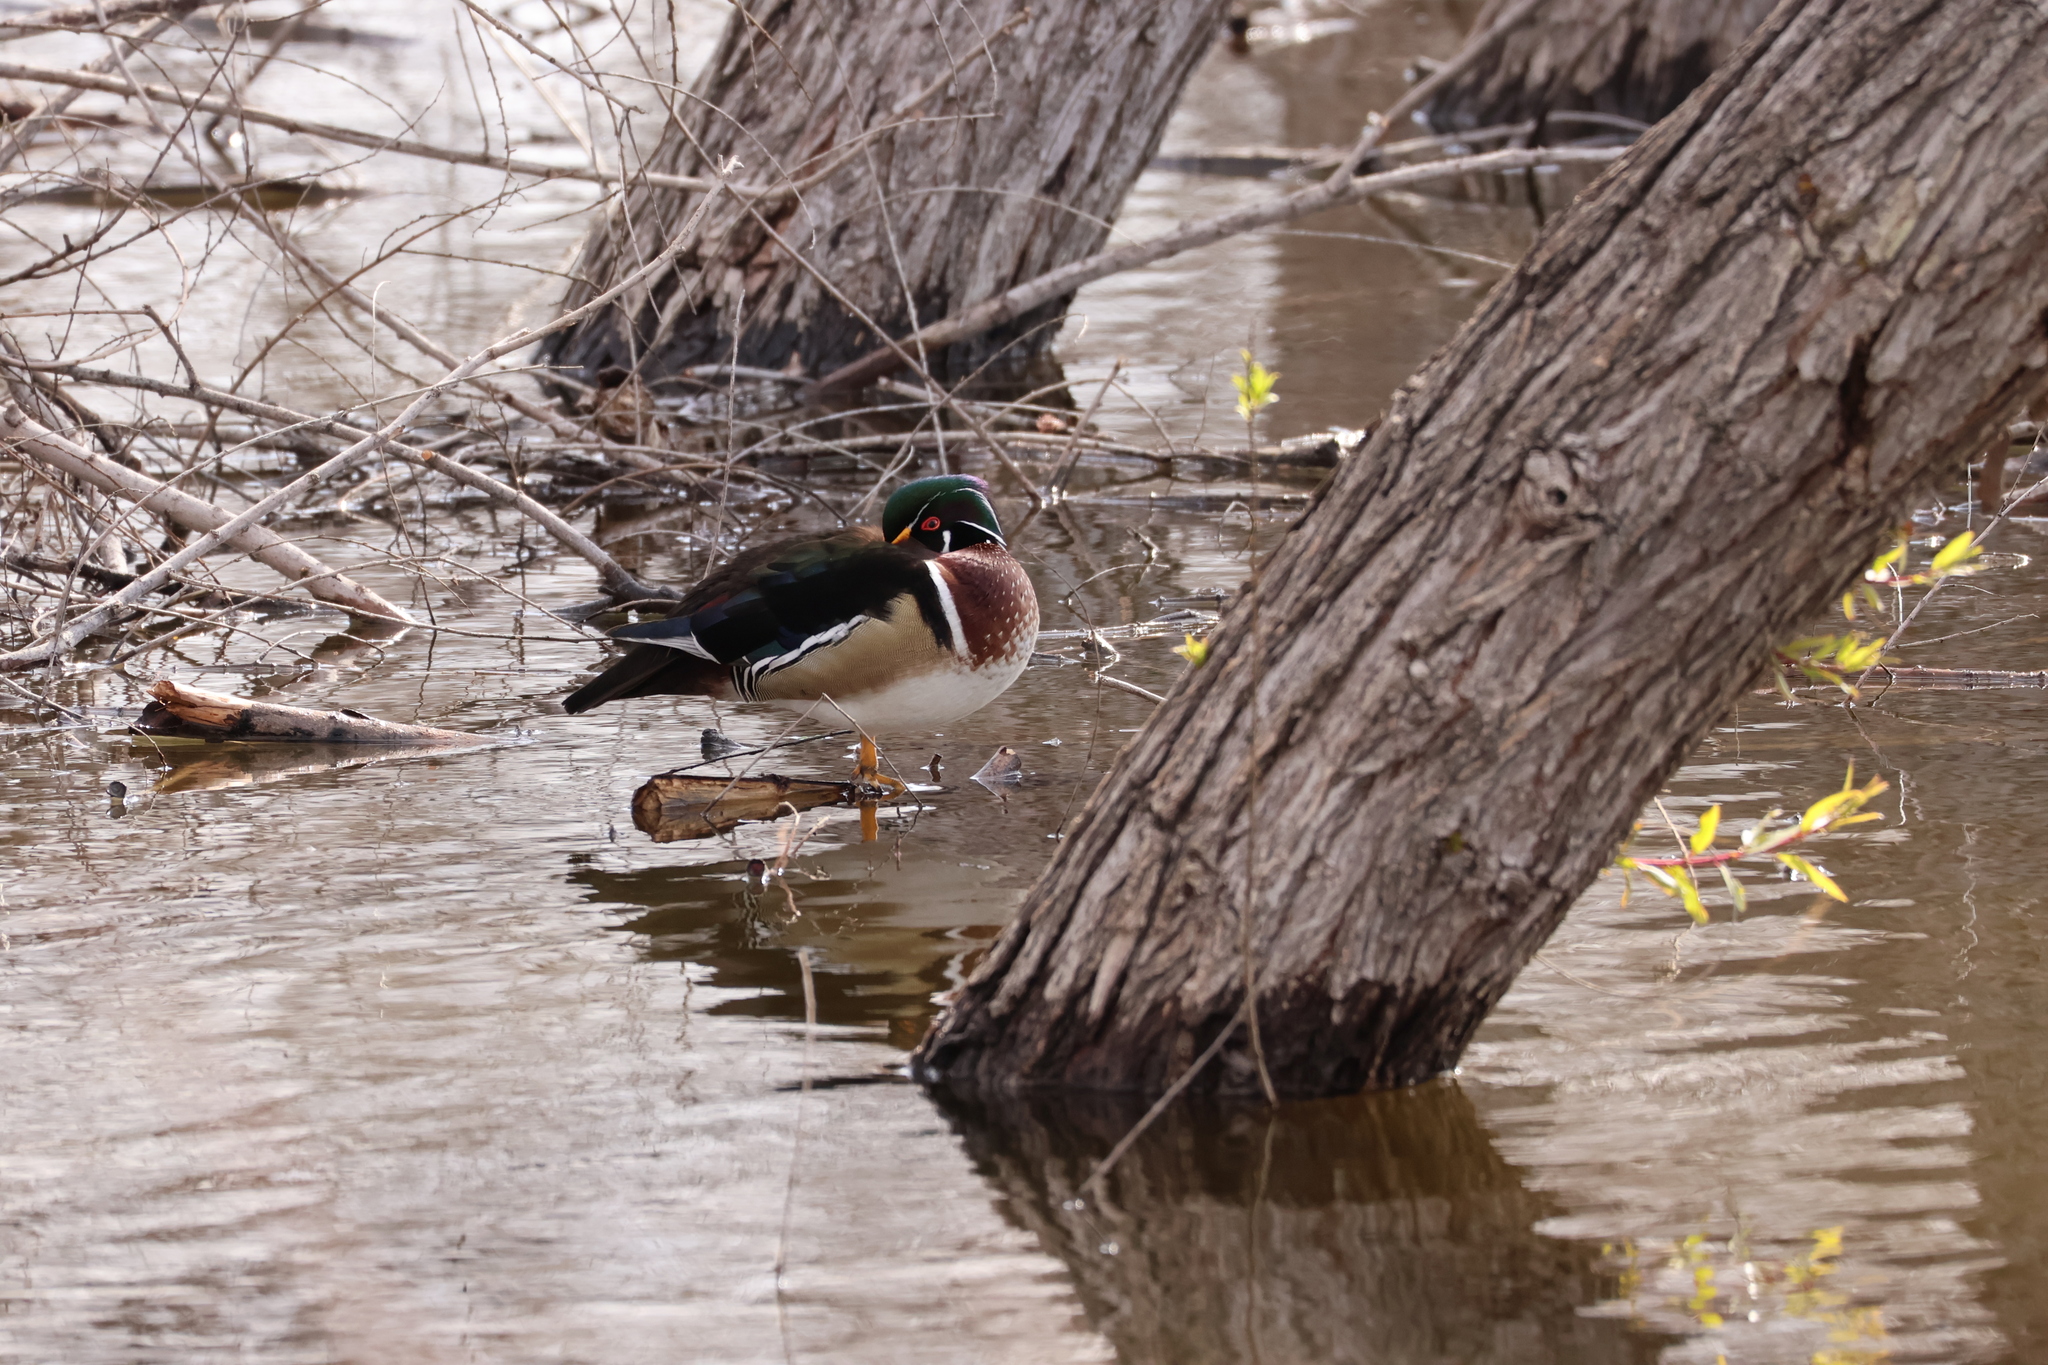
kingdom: Animalia
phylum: Chordata
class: Aves
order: Anseriformes
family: Anatidae
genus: Aix
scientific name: Aix sponsa
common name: Wood duck
